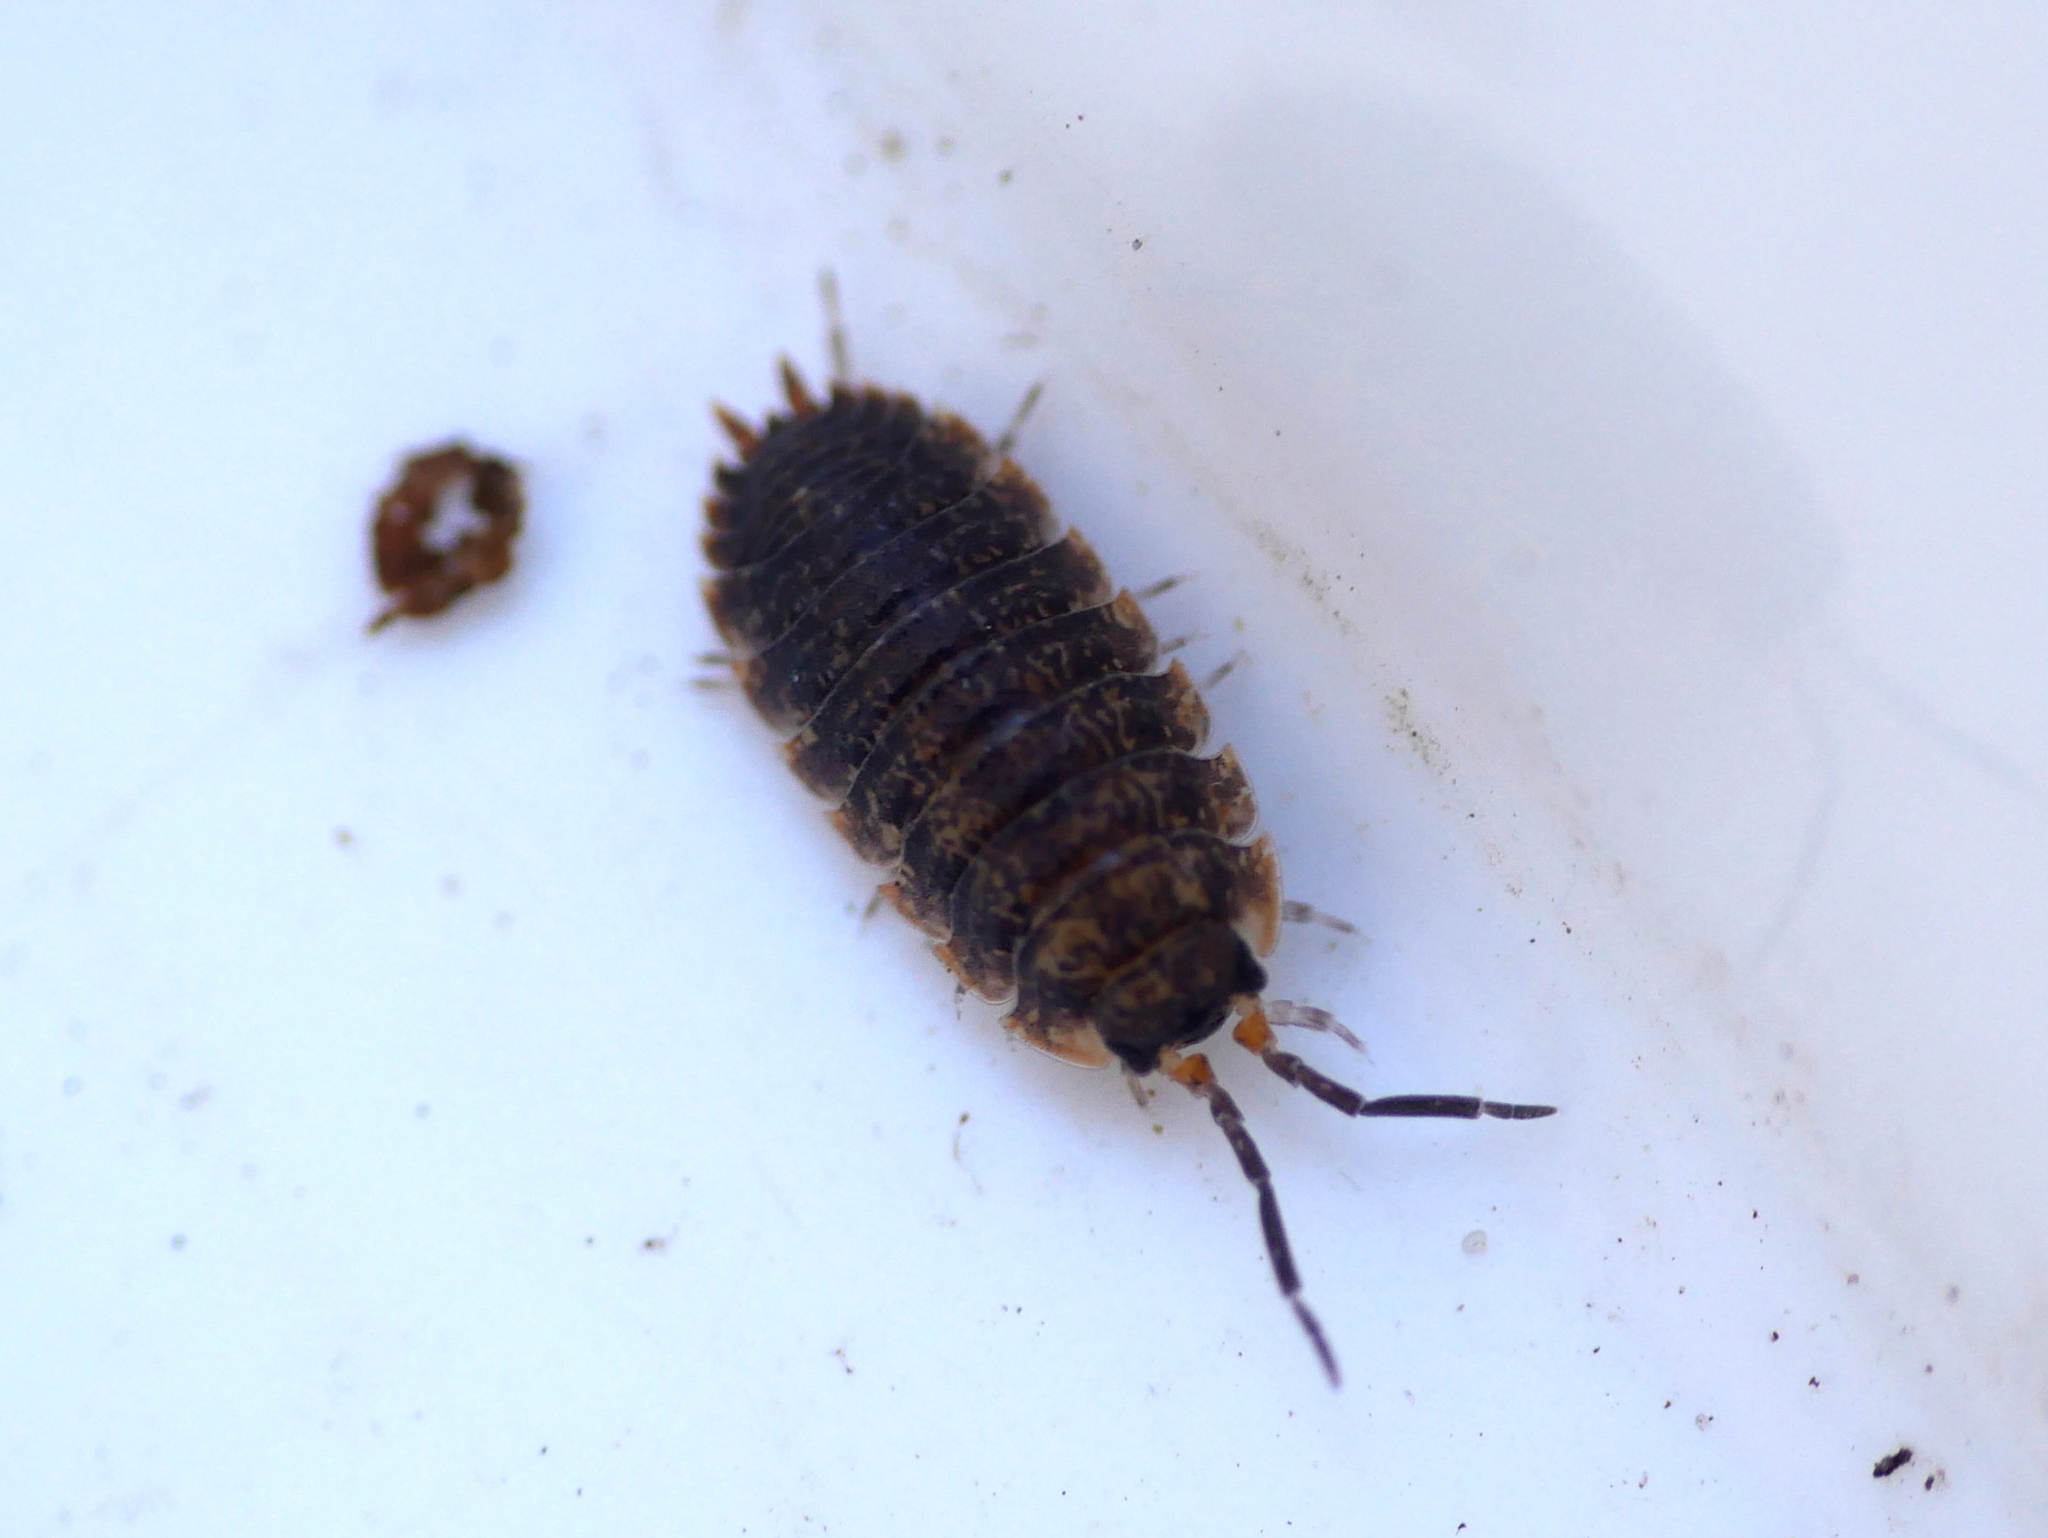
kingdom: Animalia
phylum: Arthropoda
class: Malacostraca
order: Isopoda
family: Porcellionidae
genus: Porcellio
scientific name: Porcellio scaber
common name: Common rough woodlouse
